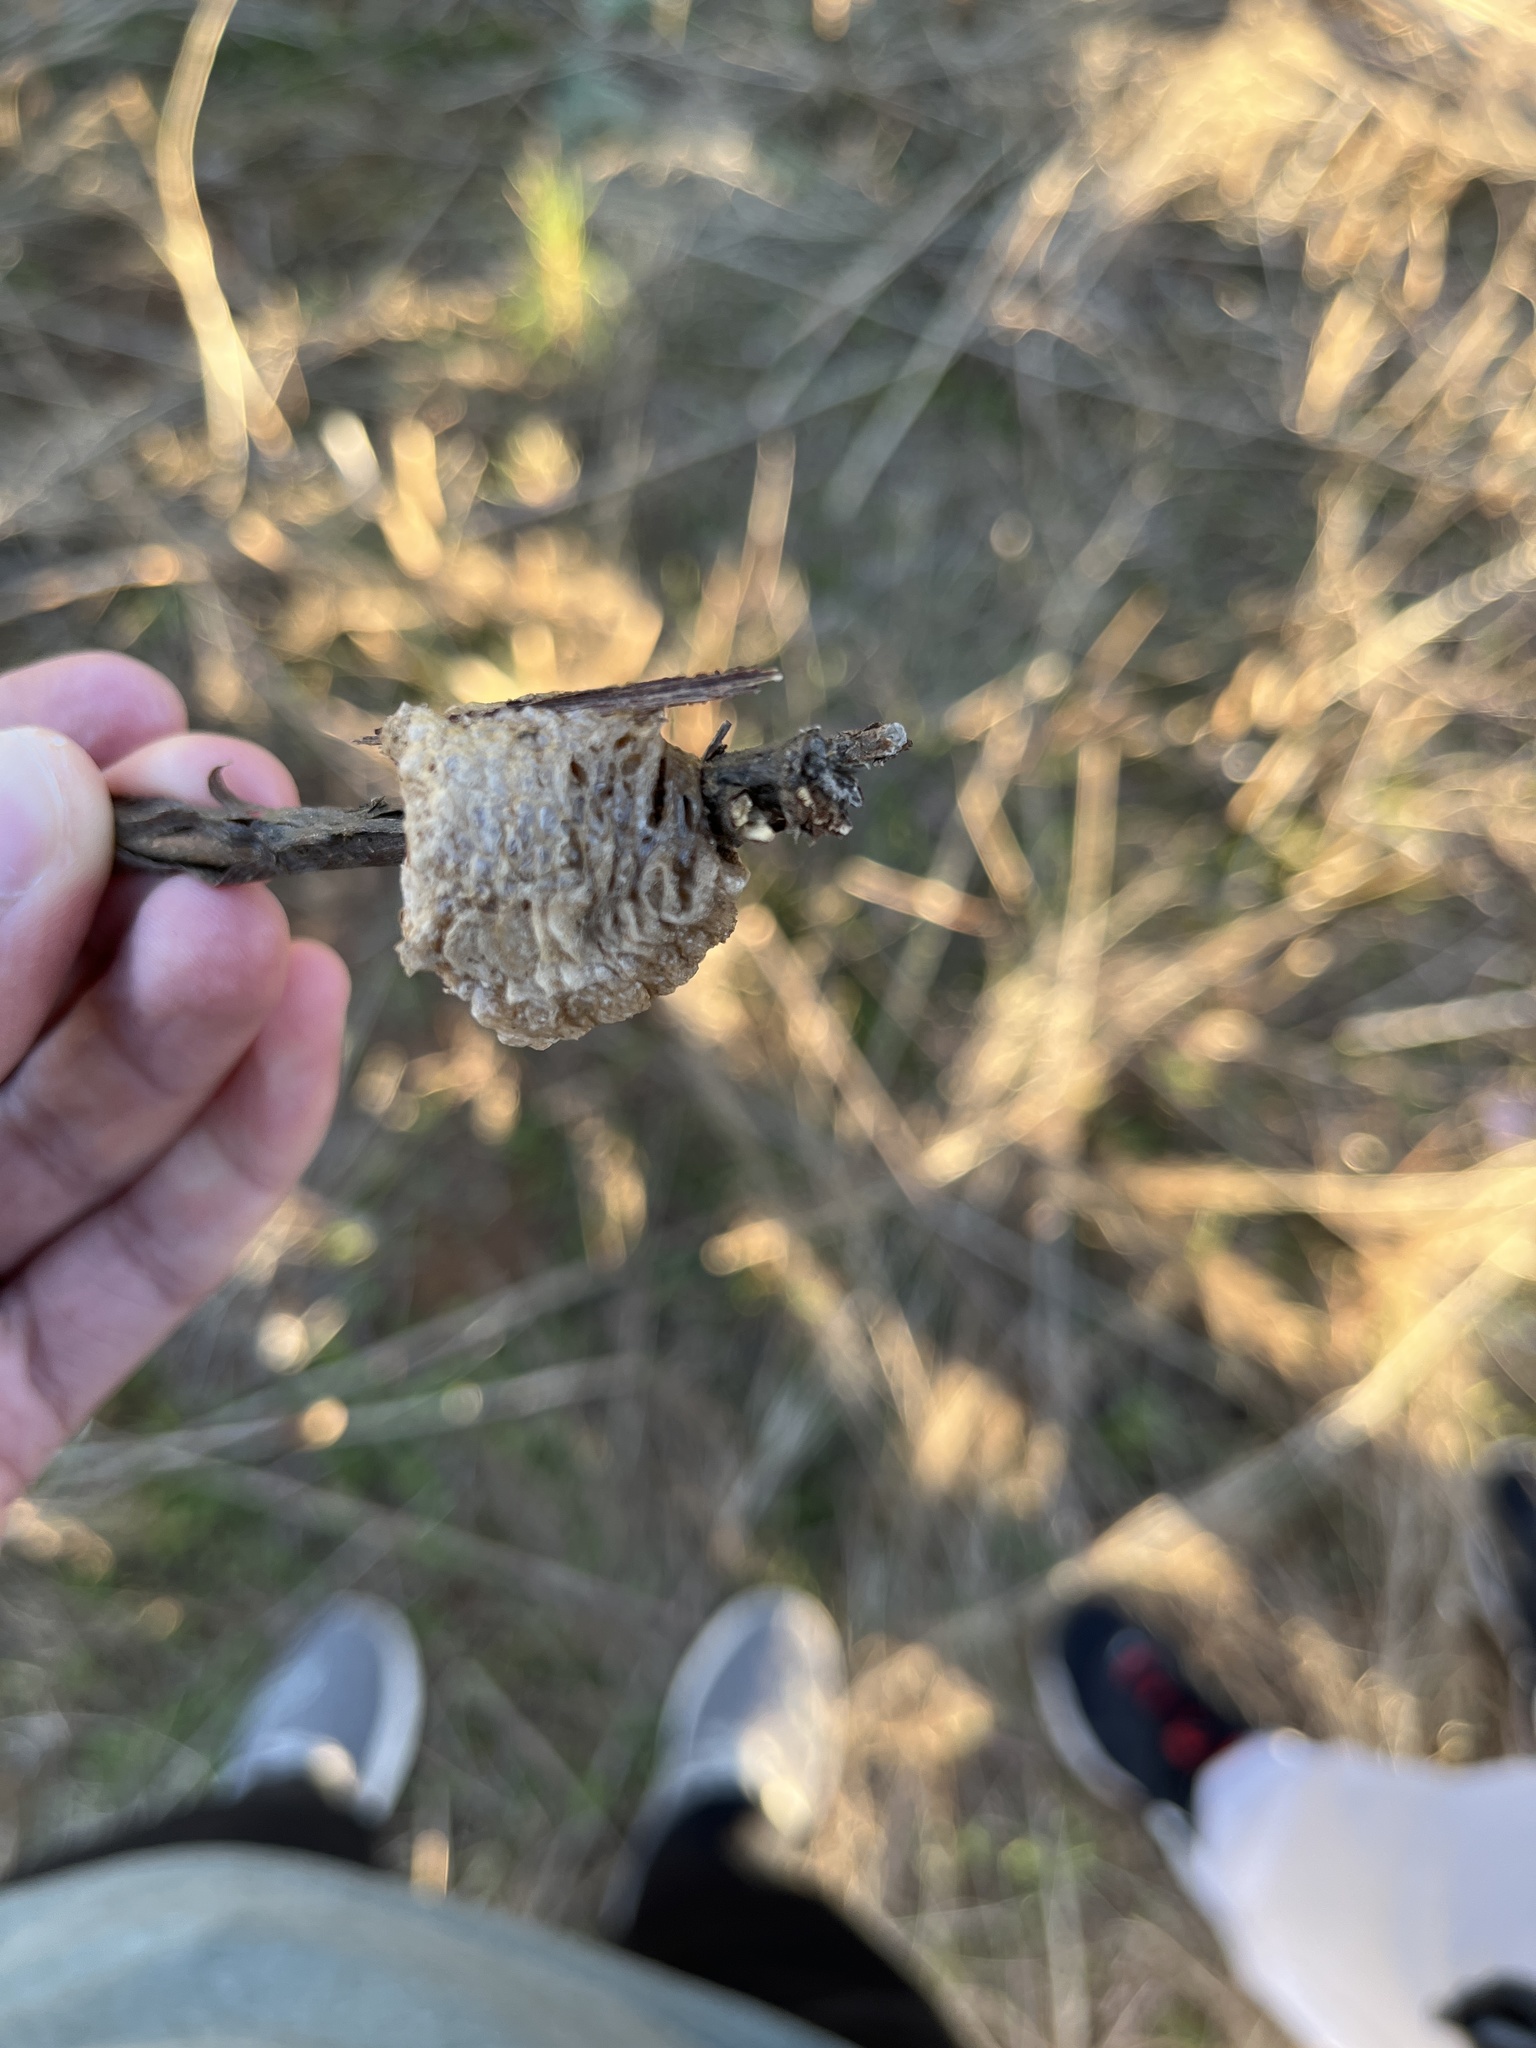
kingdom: Animalia
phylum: Arthropoda
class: Insecta
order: Mantodea
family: Mantidae
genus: Tenodera
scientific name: Tenodera sinensis
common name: Chinese mantis
